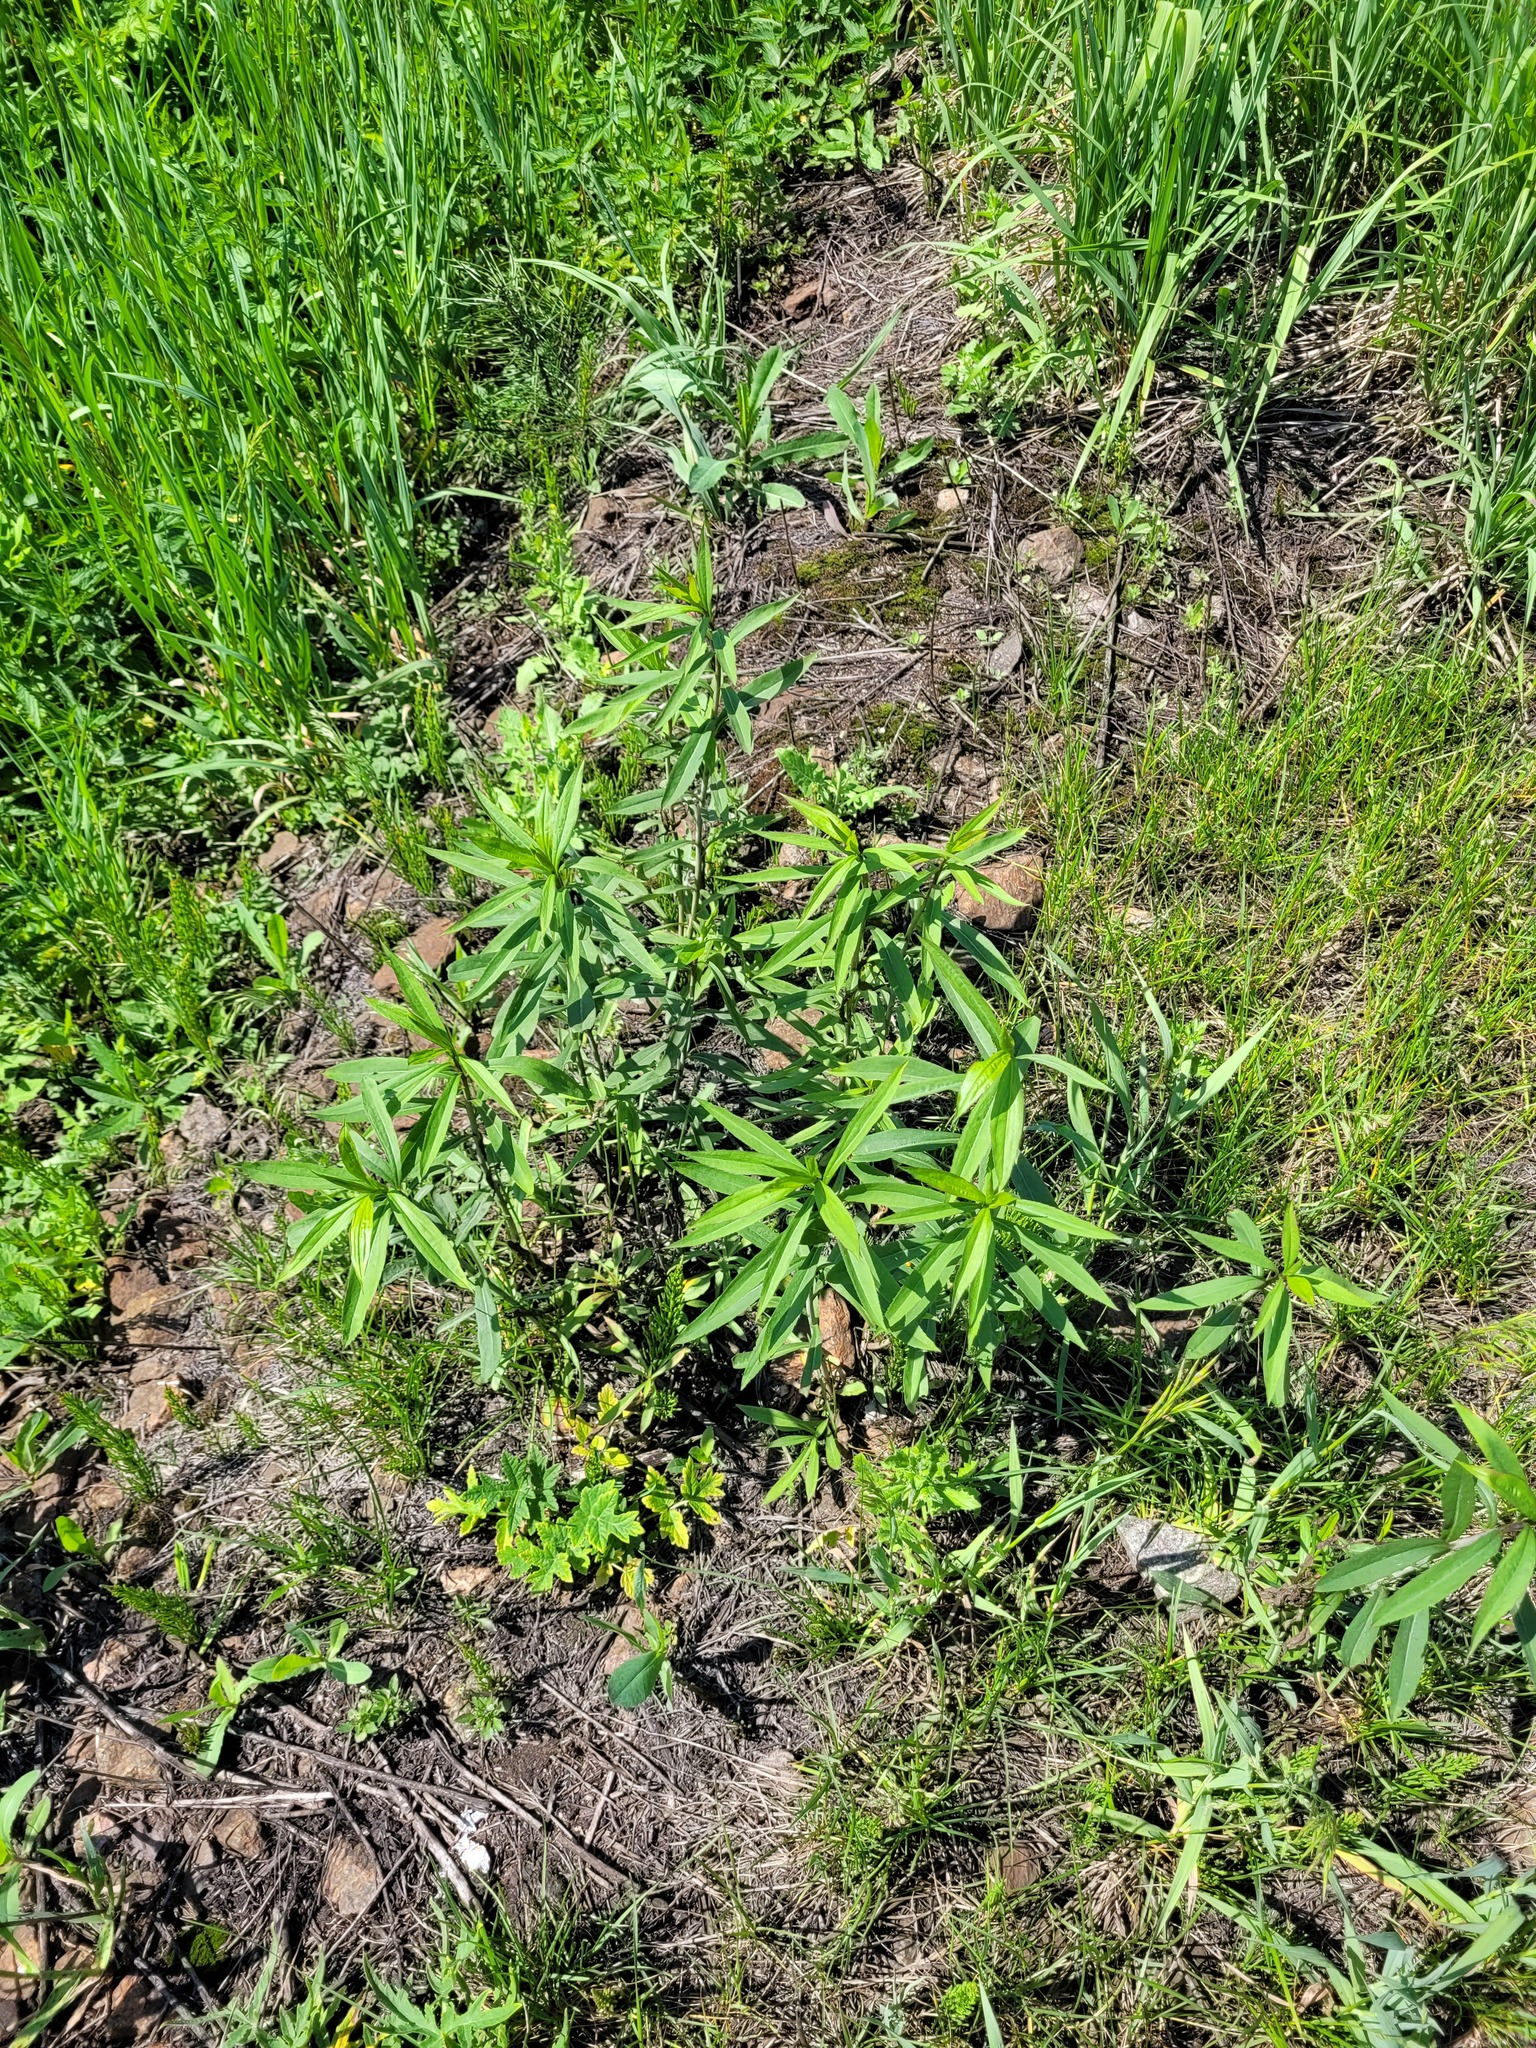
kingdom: Plantae
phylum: Tracheophyta
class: Magnoliopsida
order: Asterales
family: Asteraceae
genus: Solidago
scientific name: Solidago gigantea
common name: Giant goldenrod
